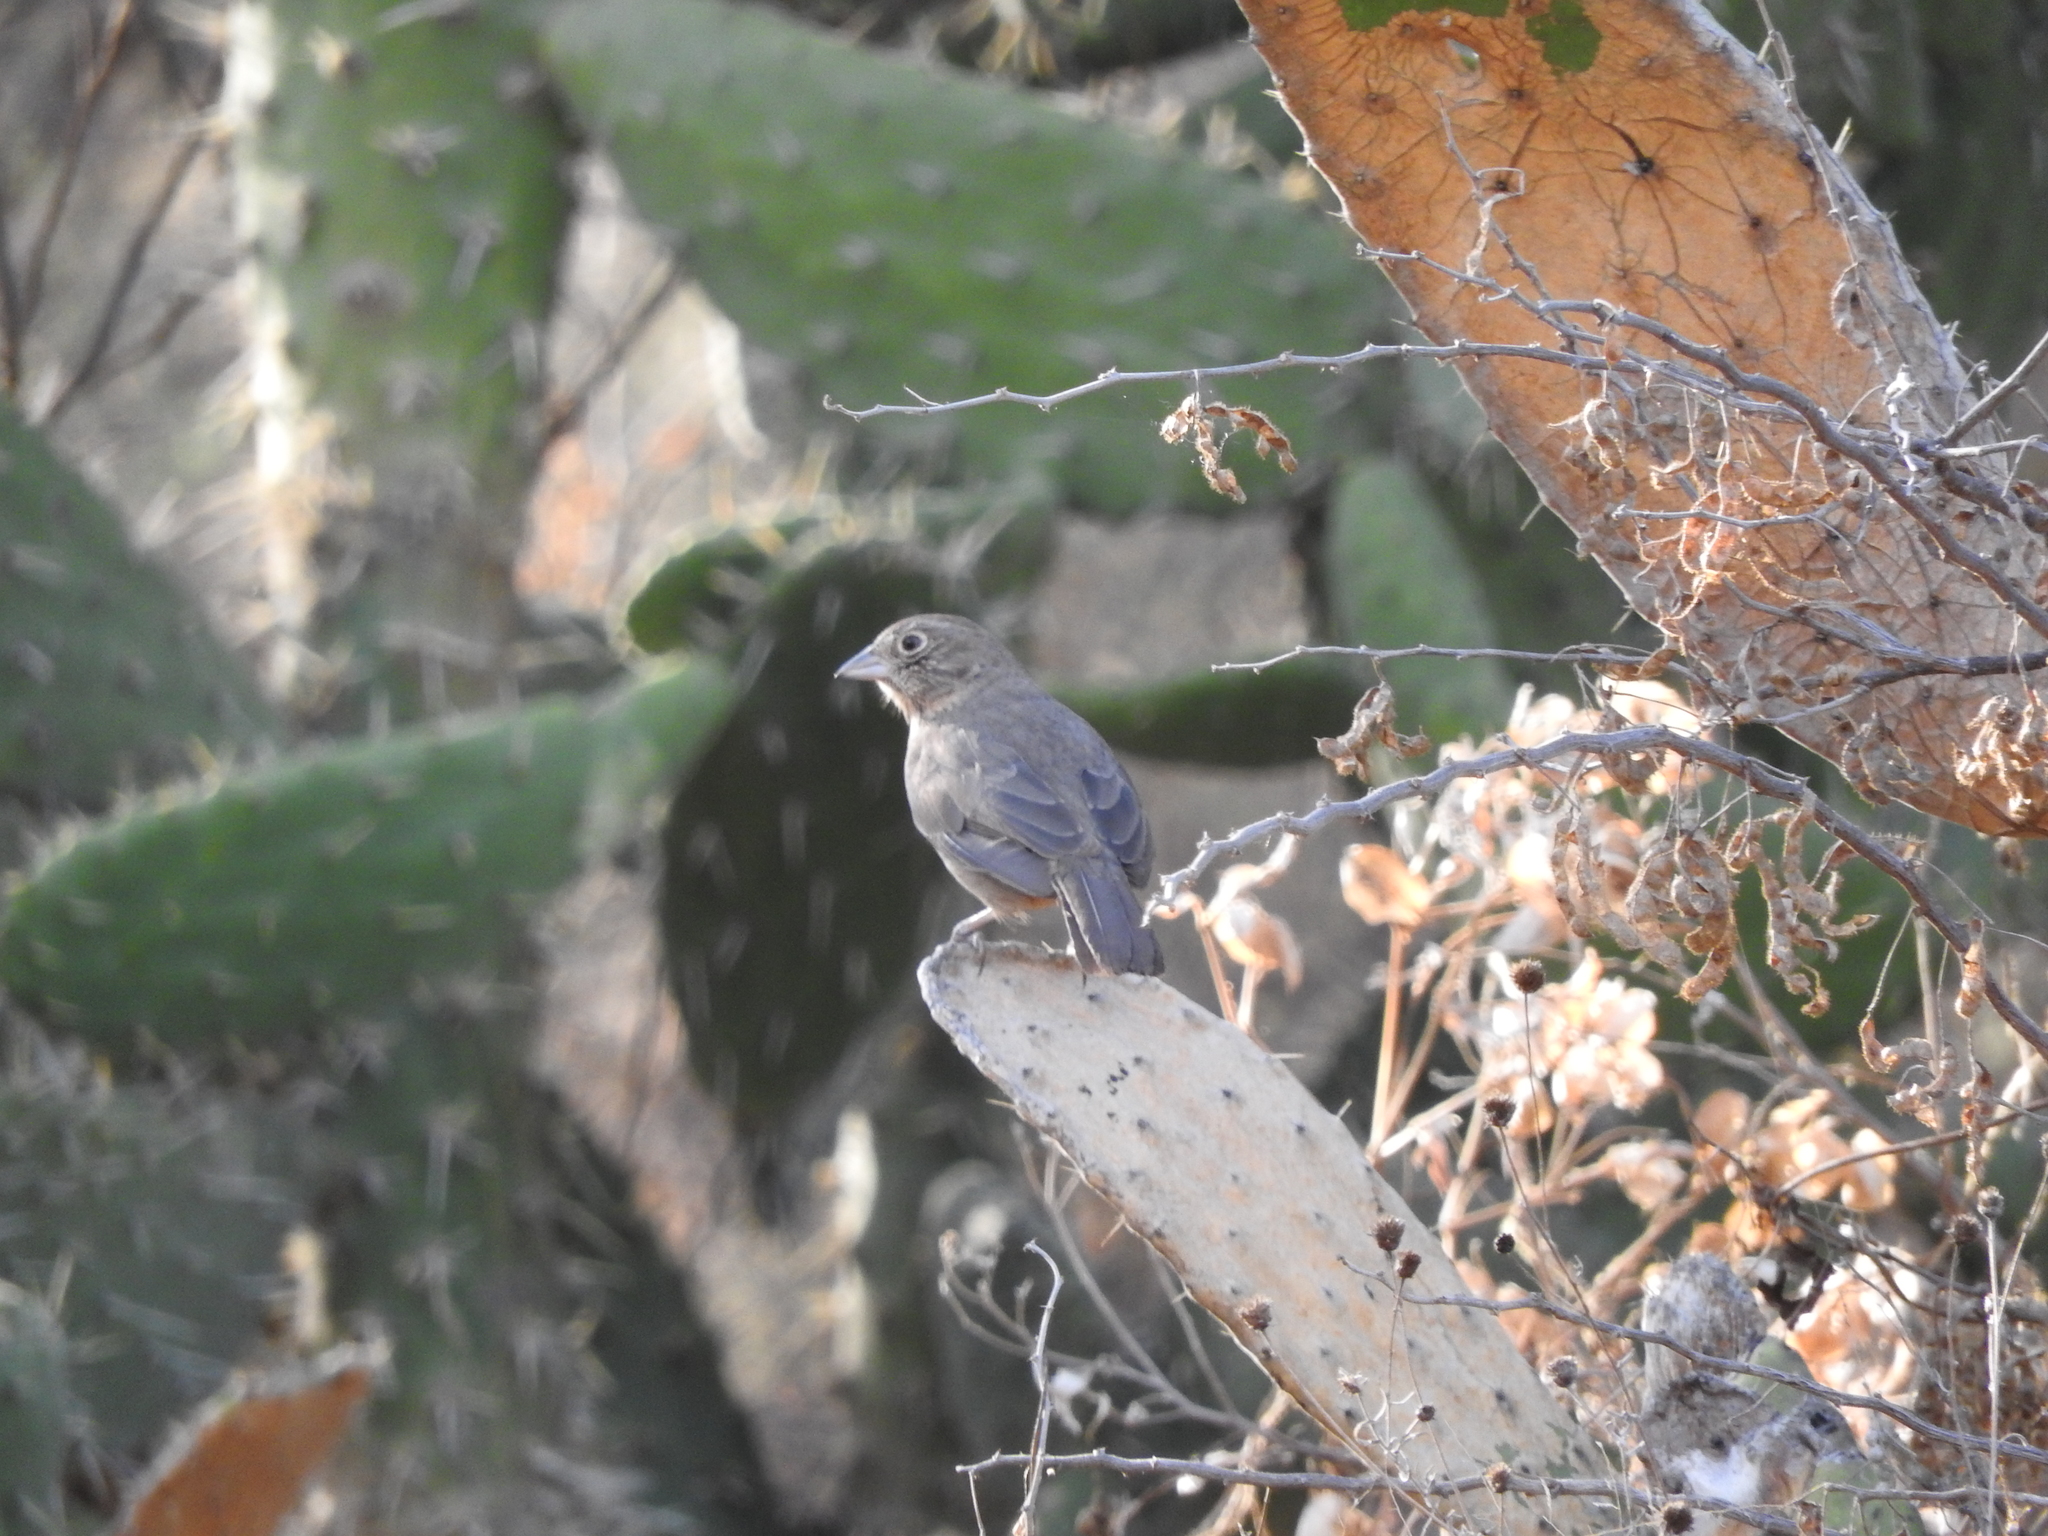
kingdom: Animalia
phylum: Chordata
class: Aves
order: Passeriformes
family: Passerellidae
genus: Melozone
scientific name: Melozone fusca
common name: Canyon towhee
